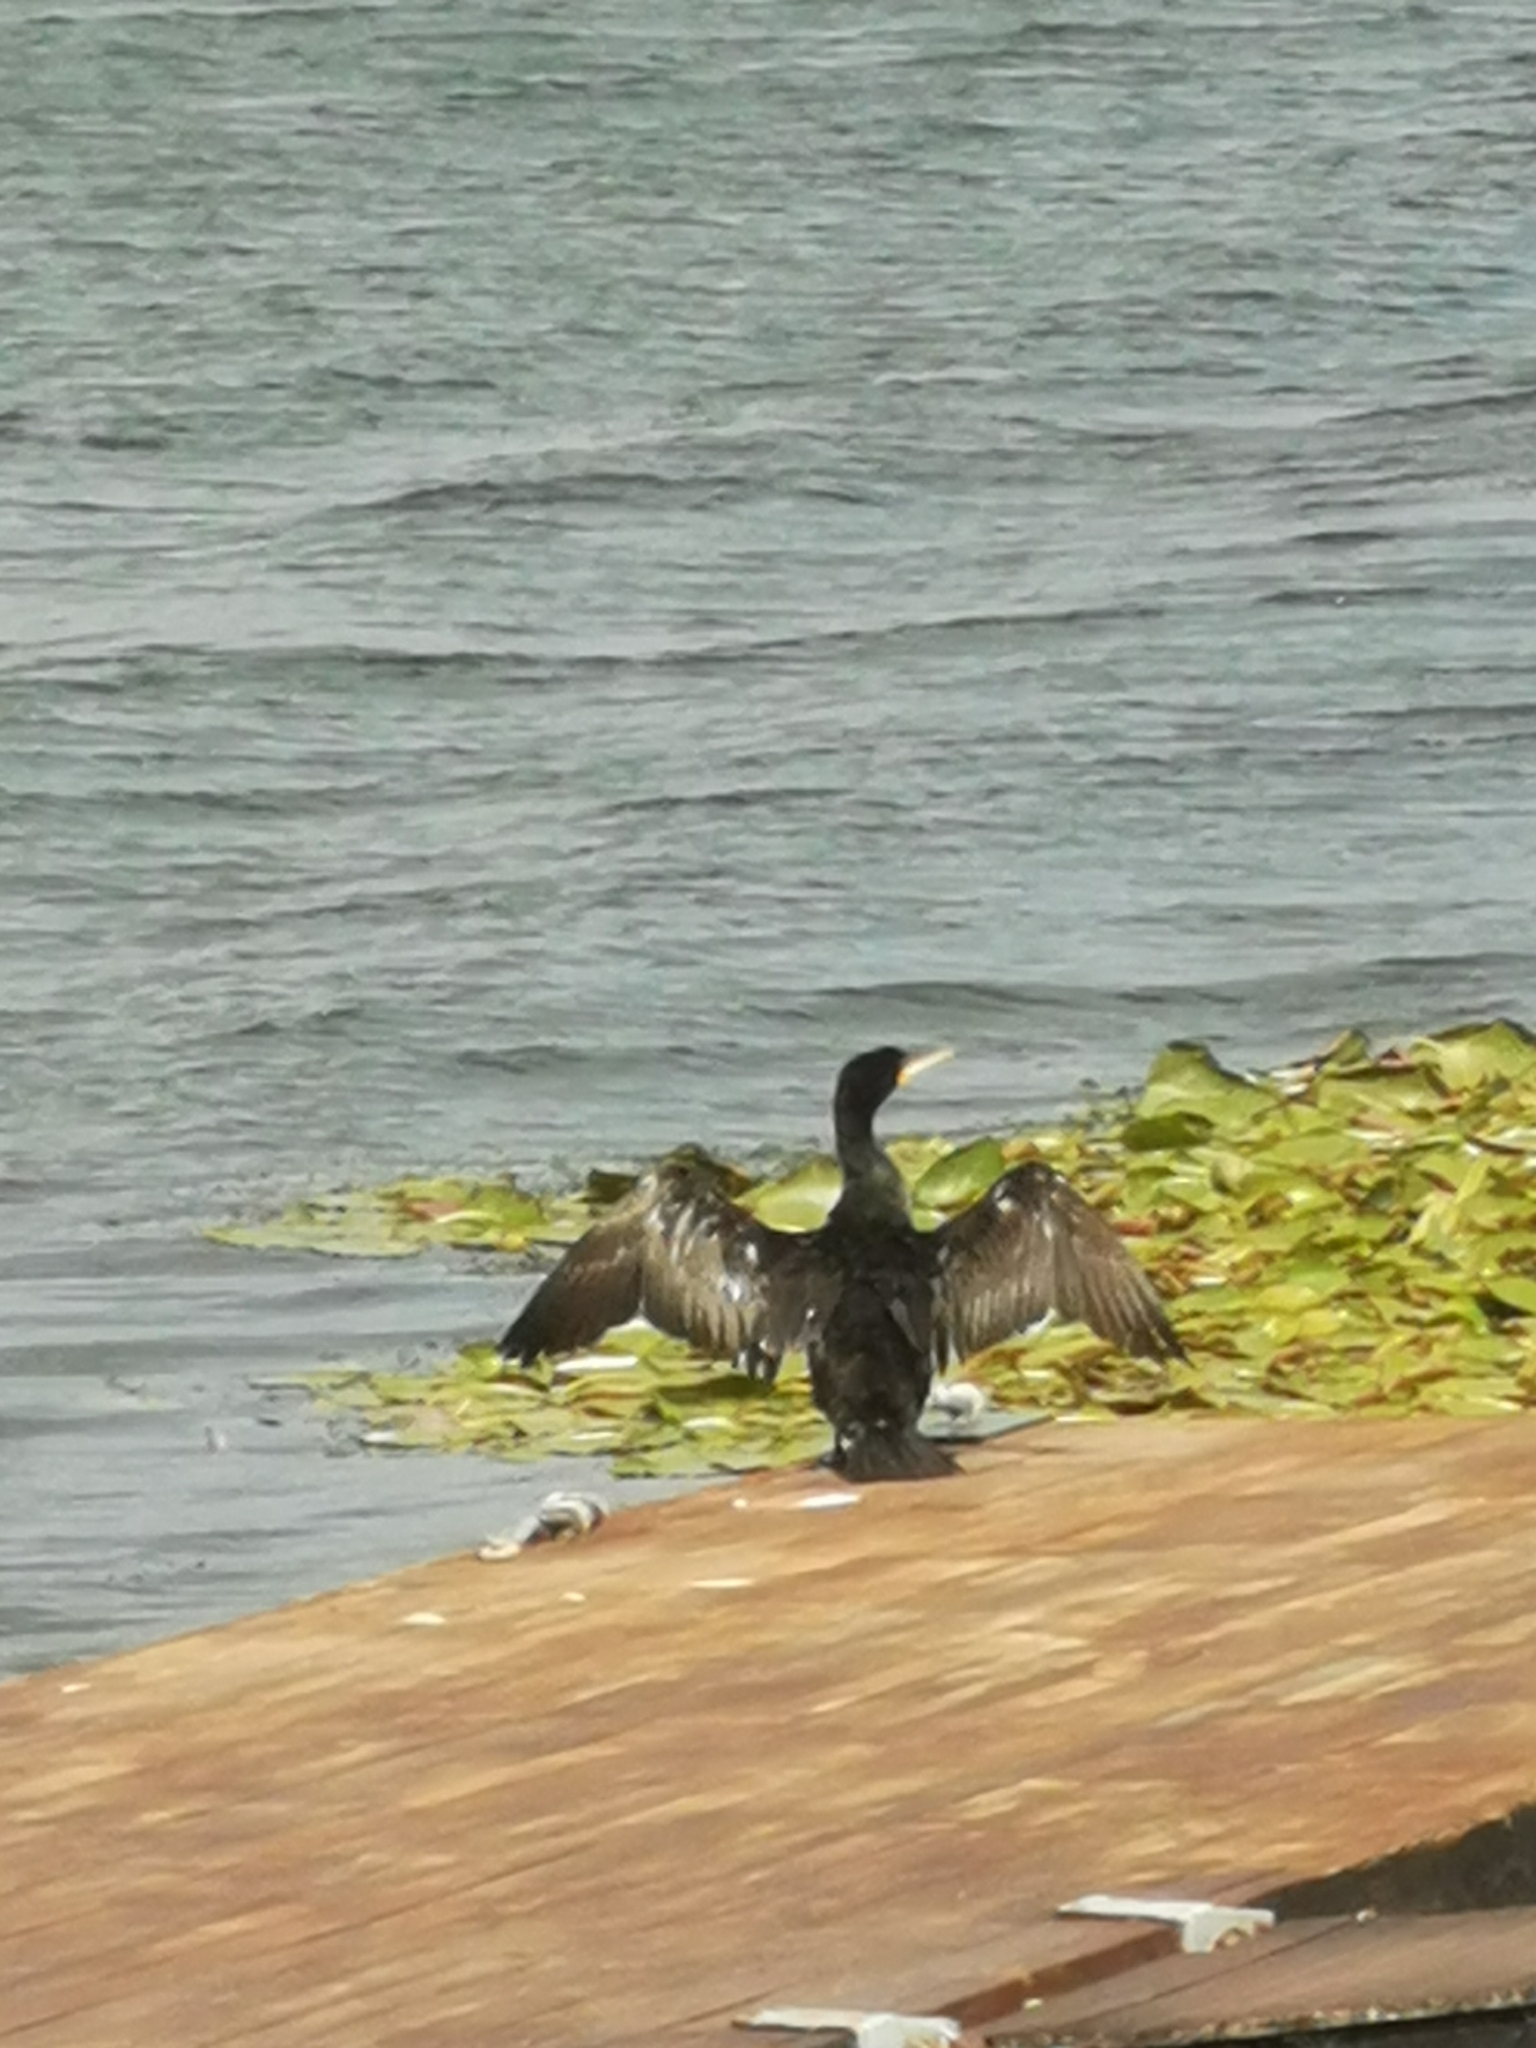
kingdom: Animalia
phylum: Chordata
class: Aves
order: Suliformes
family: Phalacrocoracidae
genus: Phalacrocorax
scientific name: Phalacrocorax carbo
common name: Great cormorant
